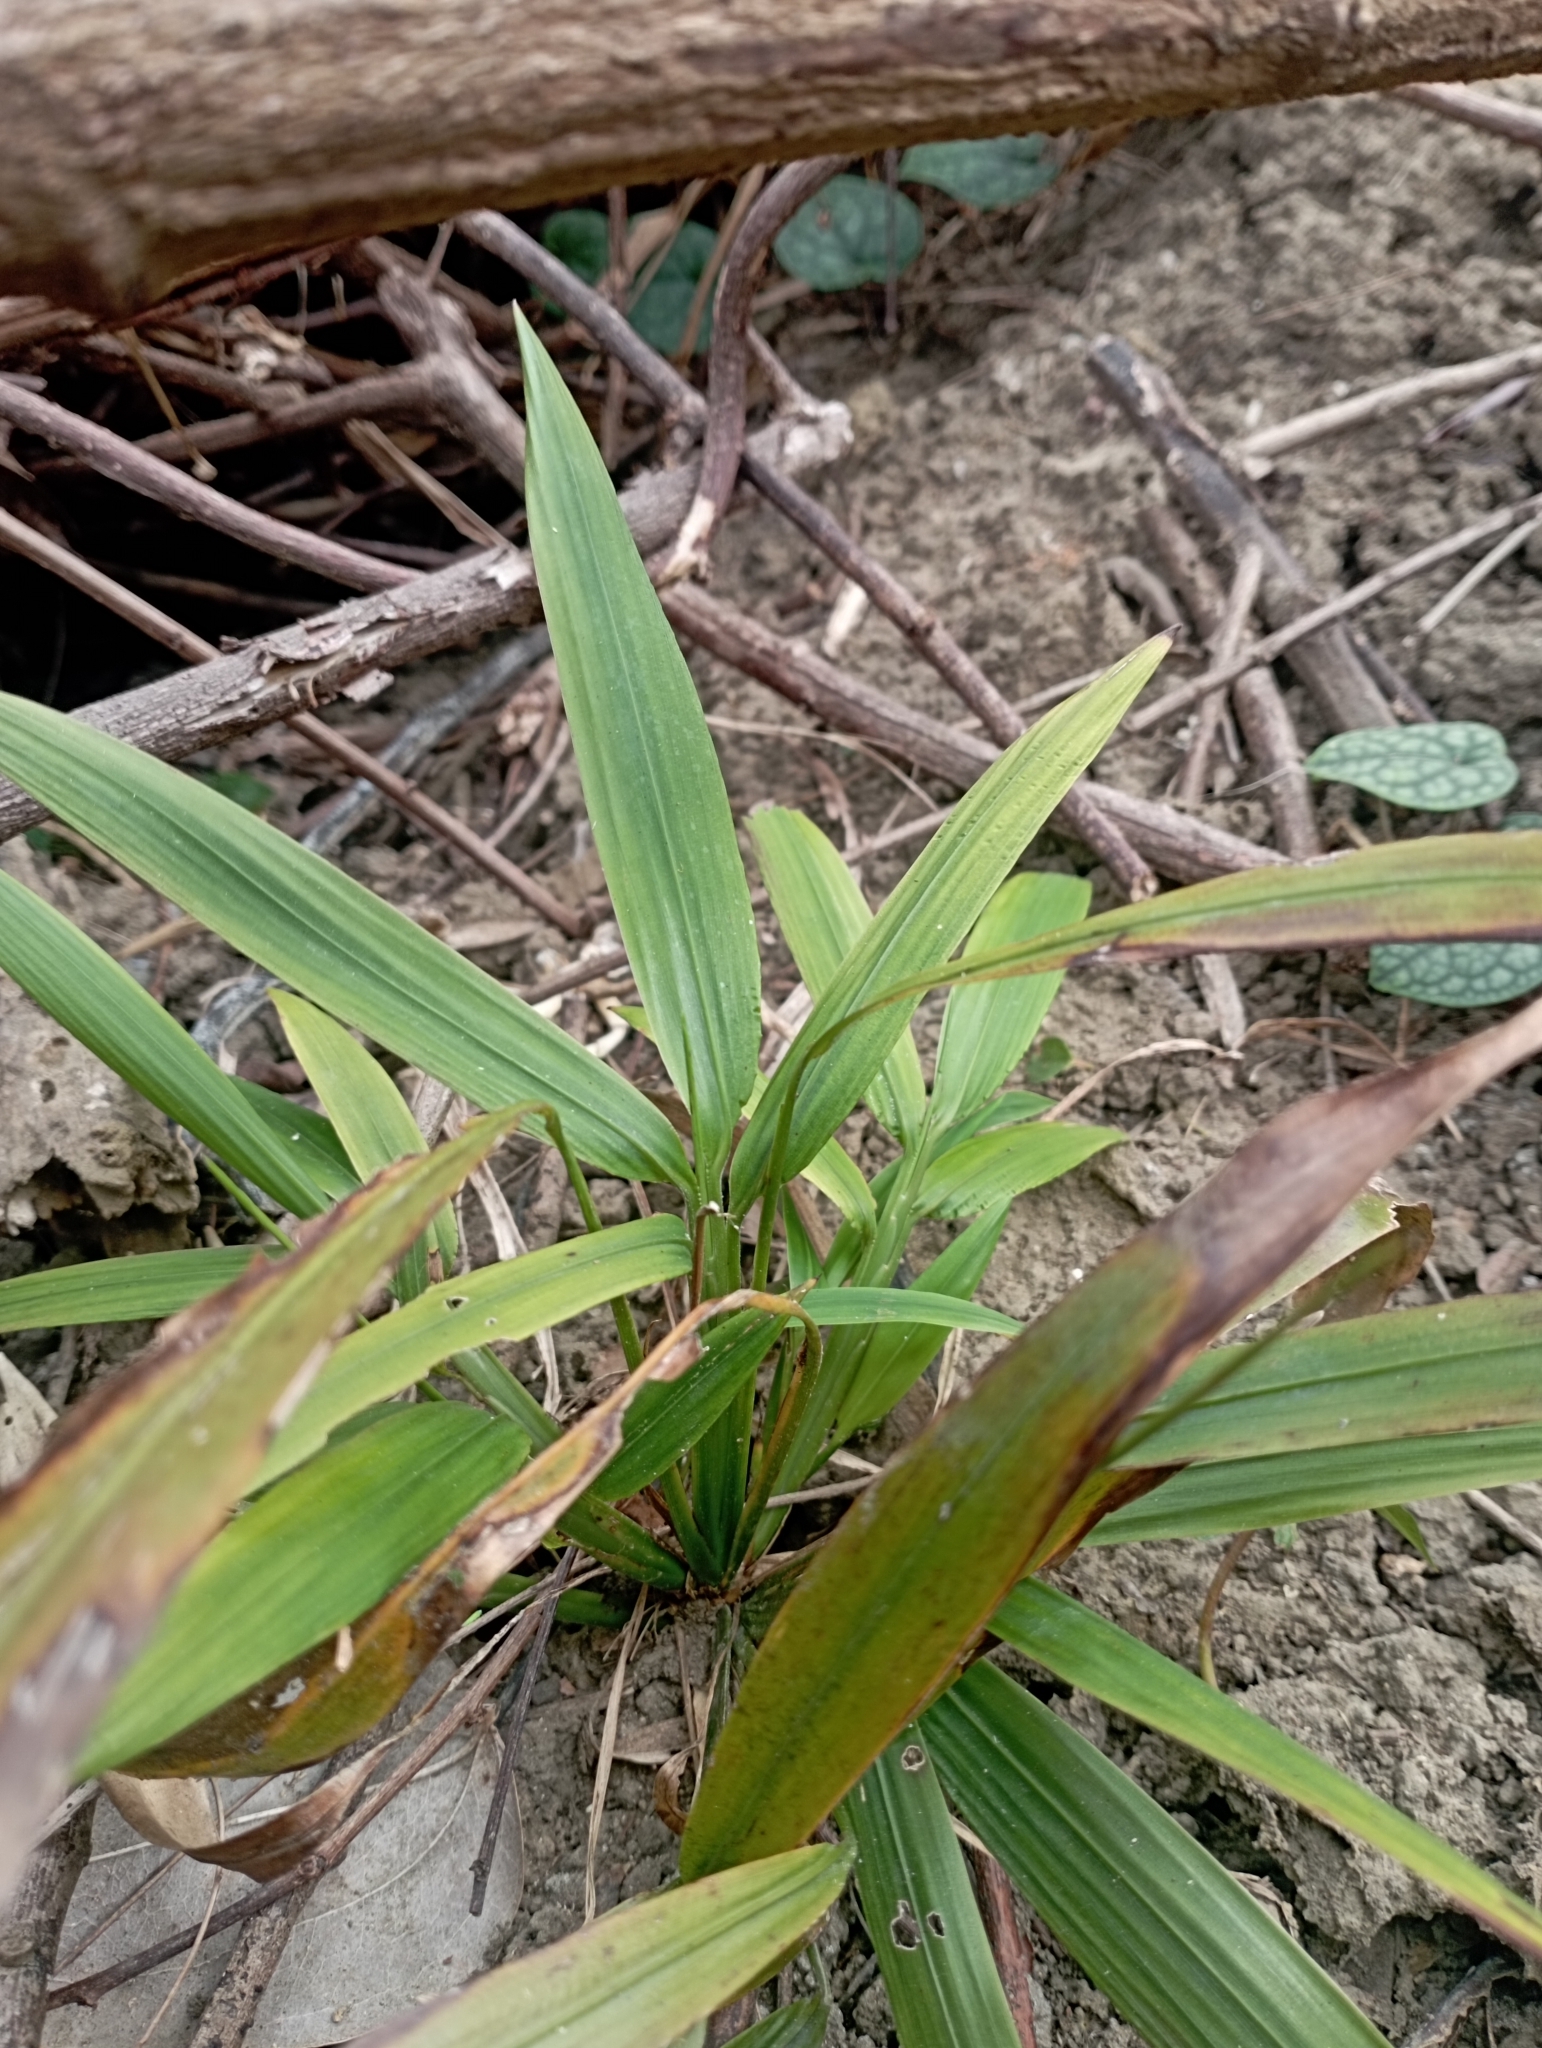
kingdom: Plantae
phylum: Tracheophyta
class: Liliopsida
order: Poales
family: Poaceae
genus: Leptaspis
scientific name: Leptaspis banksii
